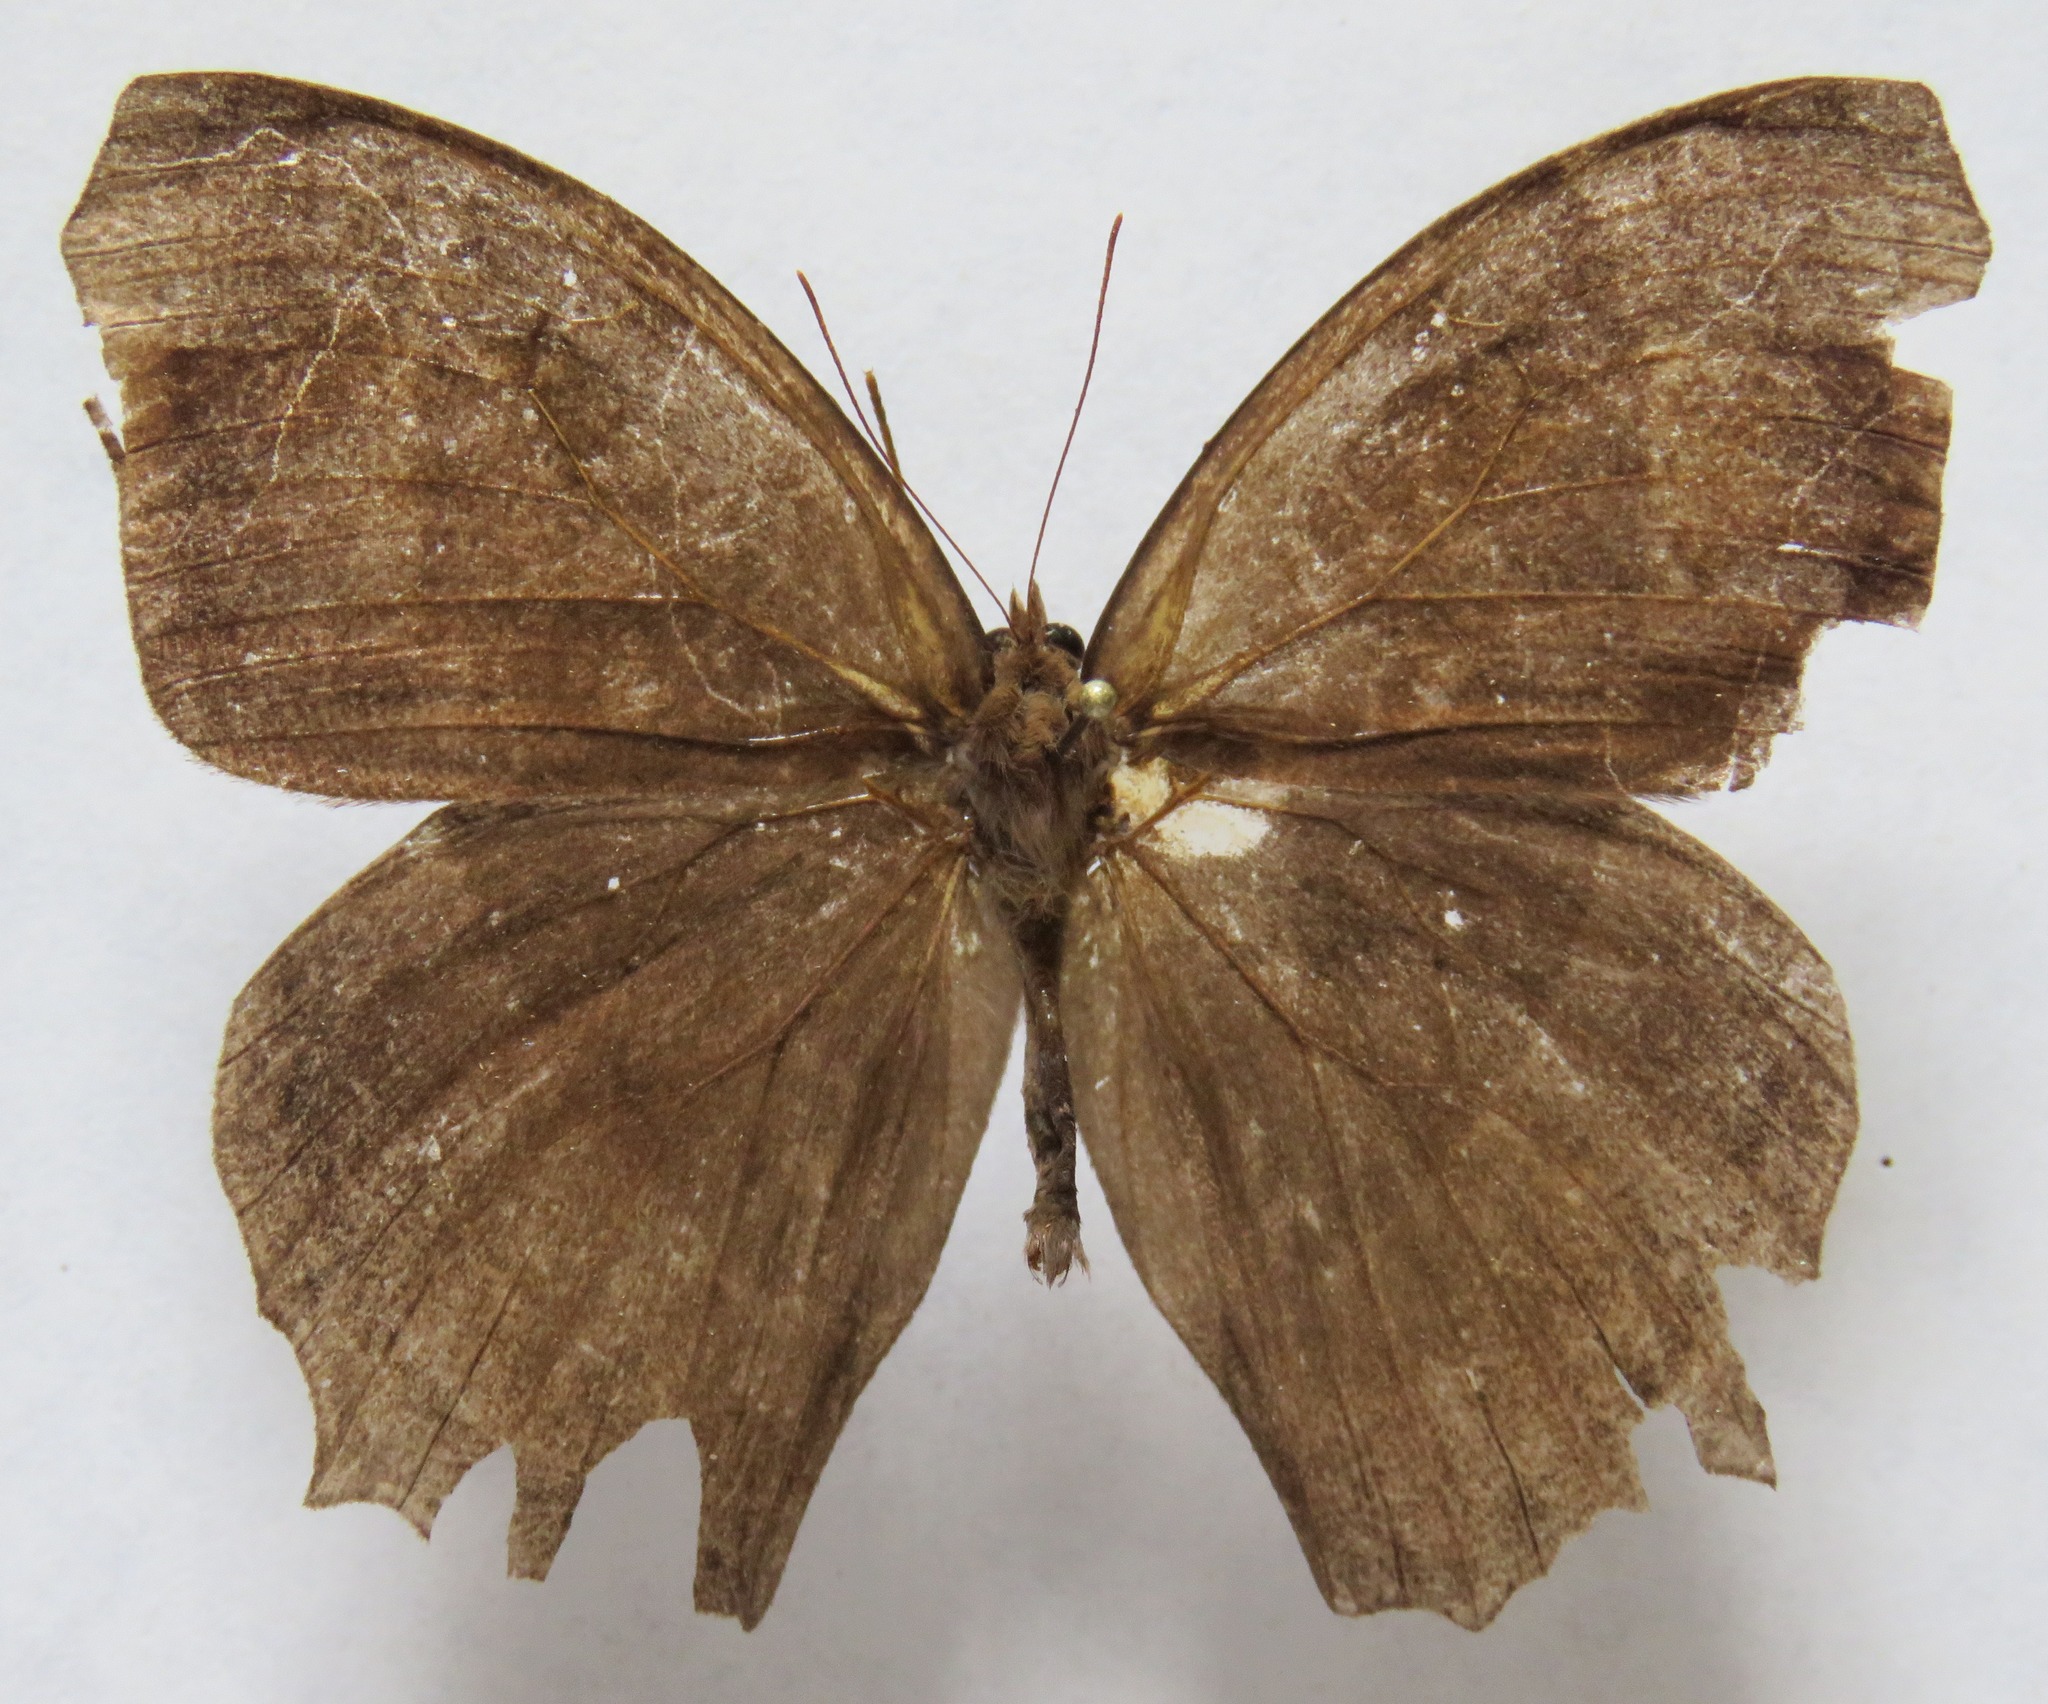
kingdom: Animalia
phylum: Arthropoda
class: Insecta
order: Lepidoptera
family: Nymphalidae
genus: Taygetis
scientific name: Taygetis inconspicua
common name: Inconspicuous satyr
